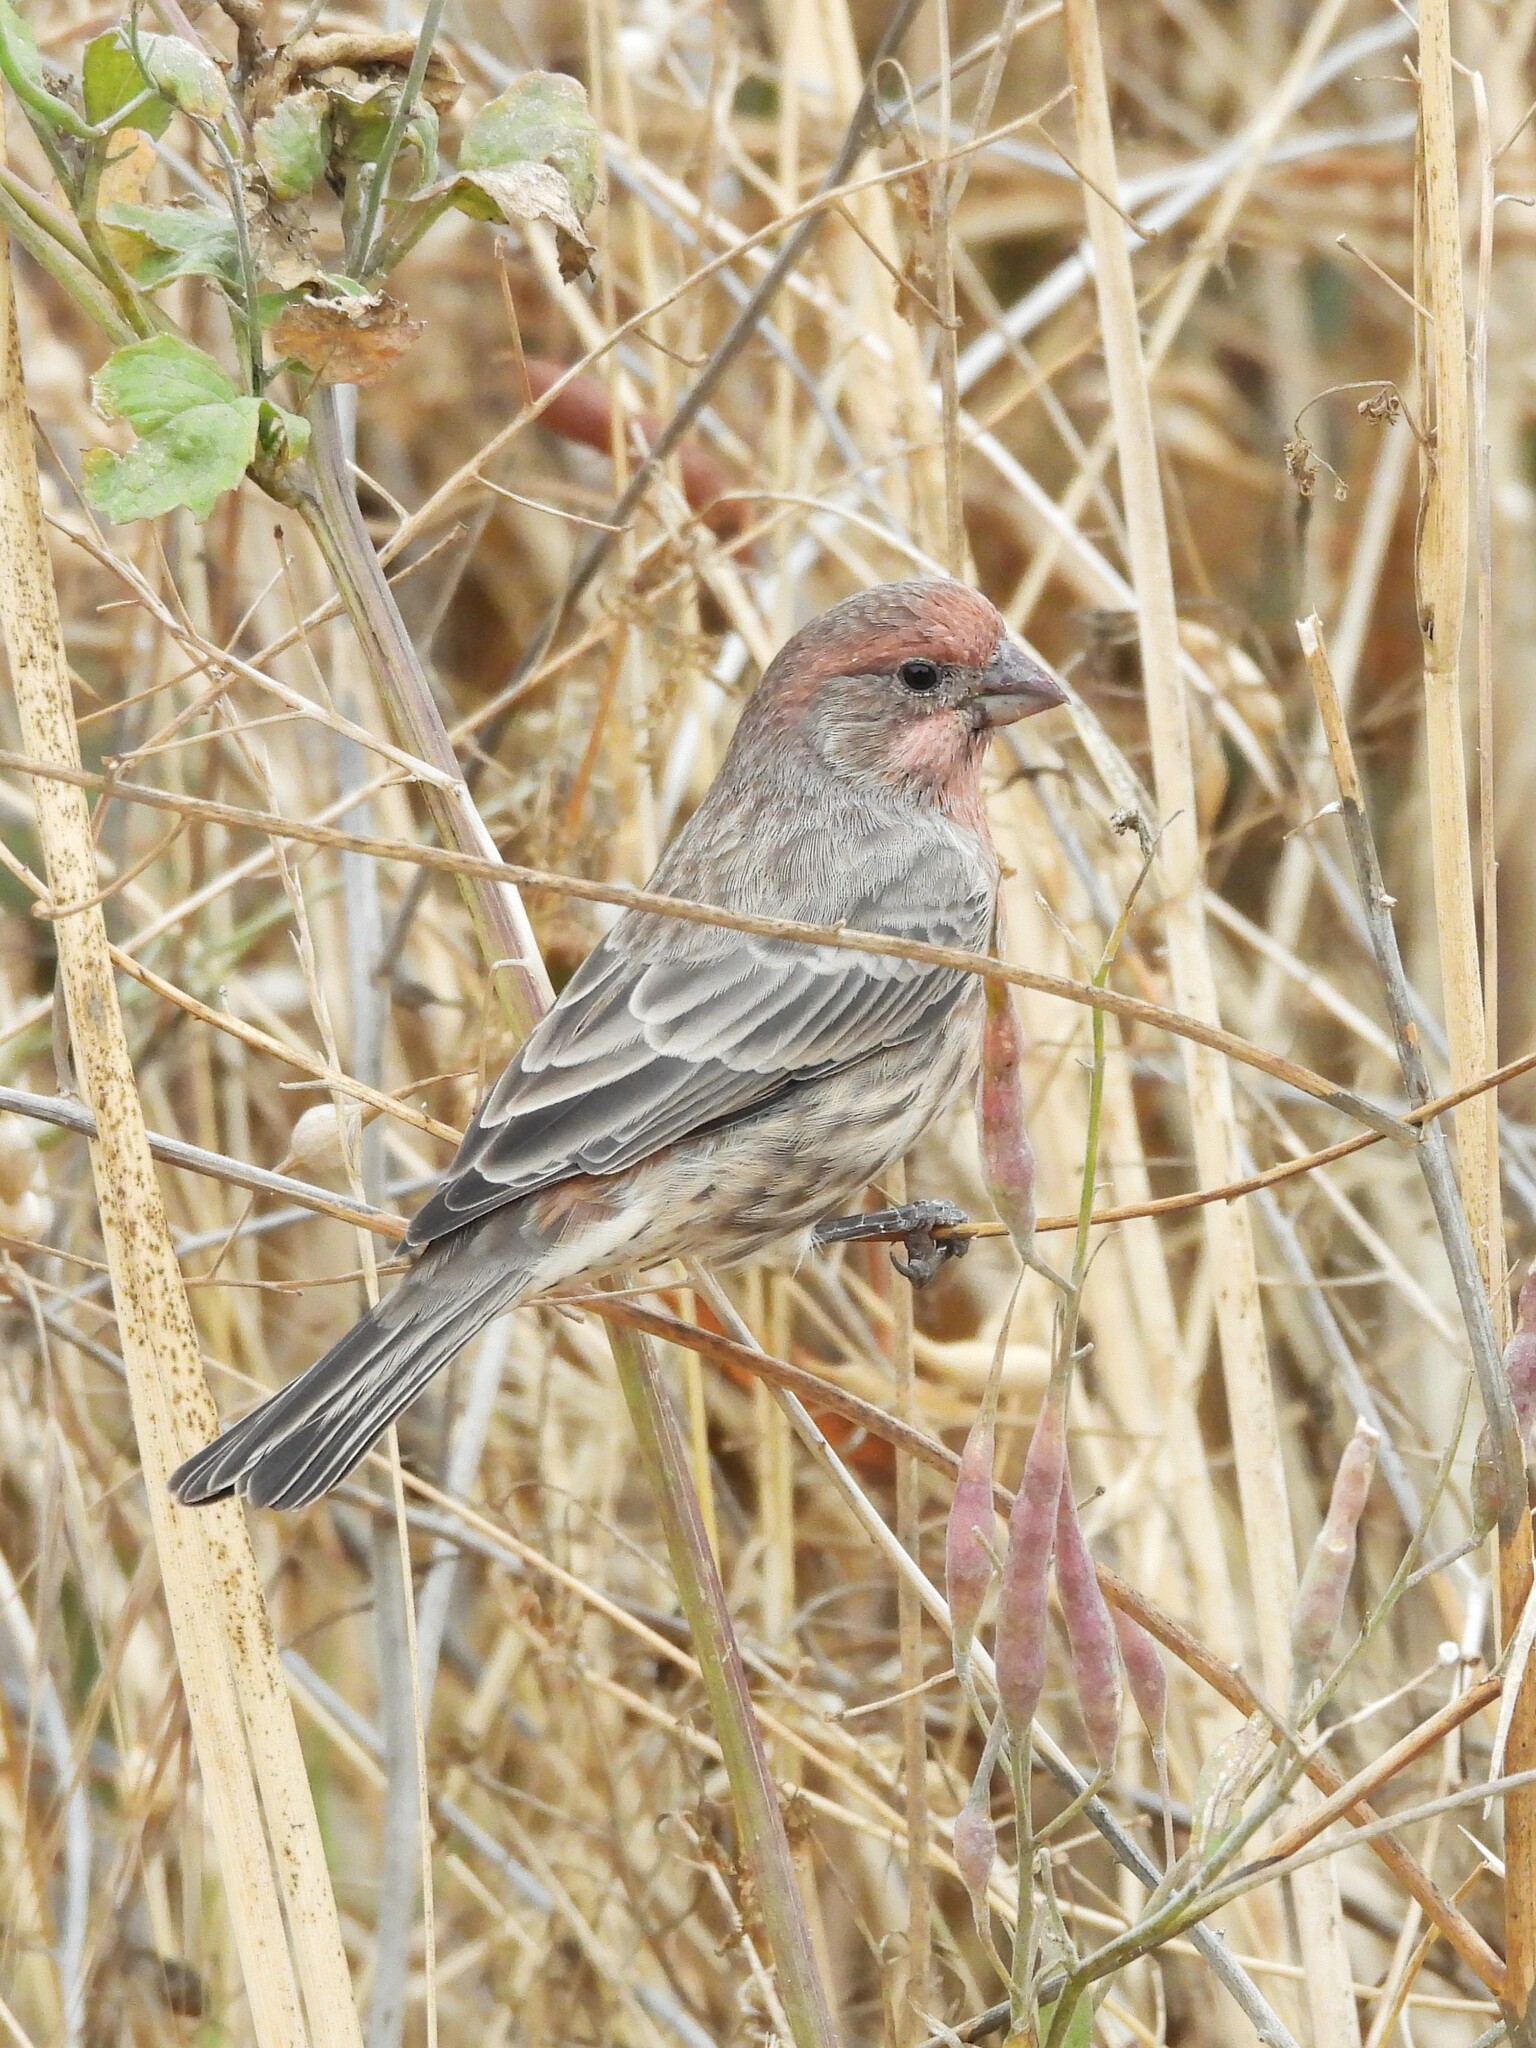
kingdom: Animalia
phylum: Chordata
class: Aves
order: Passeriformes
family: Fringillidae
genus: Haemorhous
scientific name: Haemorhous mexicanus
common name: House finch
